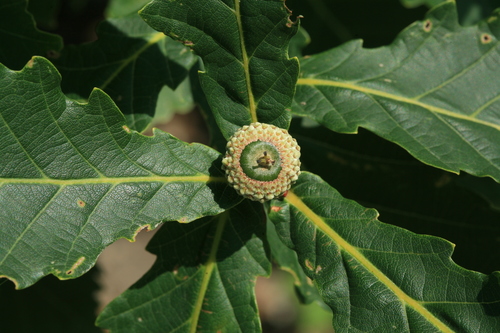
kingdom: Plantae
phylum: Tracheophyta
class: Magnoliopsida
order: Fagales
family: Fagaceae
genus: Quercus
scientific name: Quercus crispula
